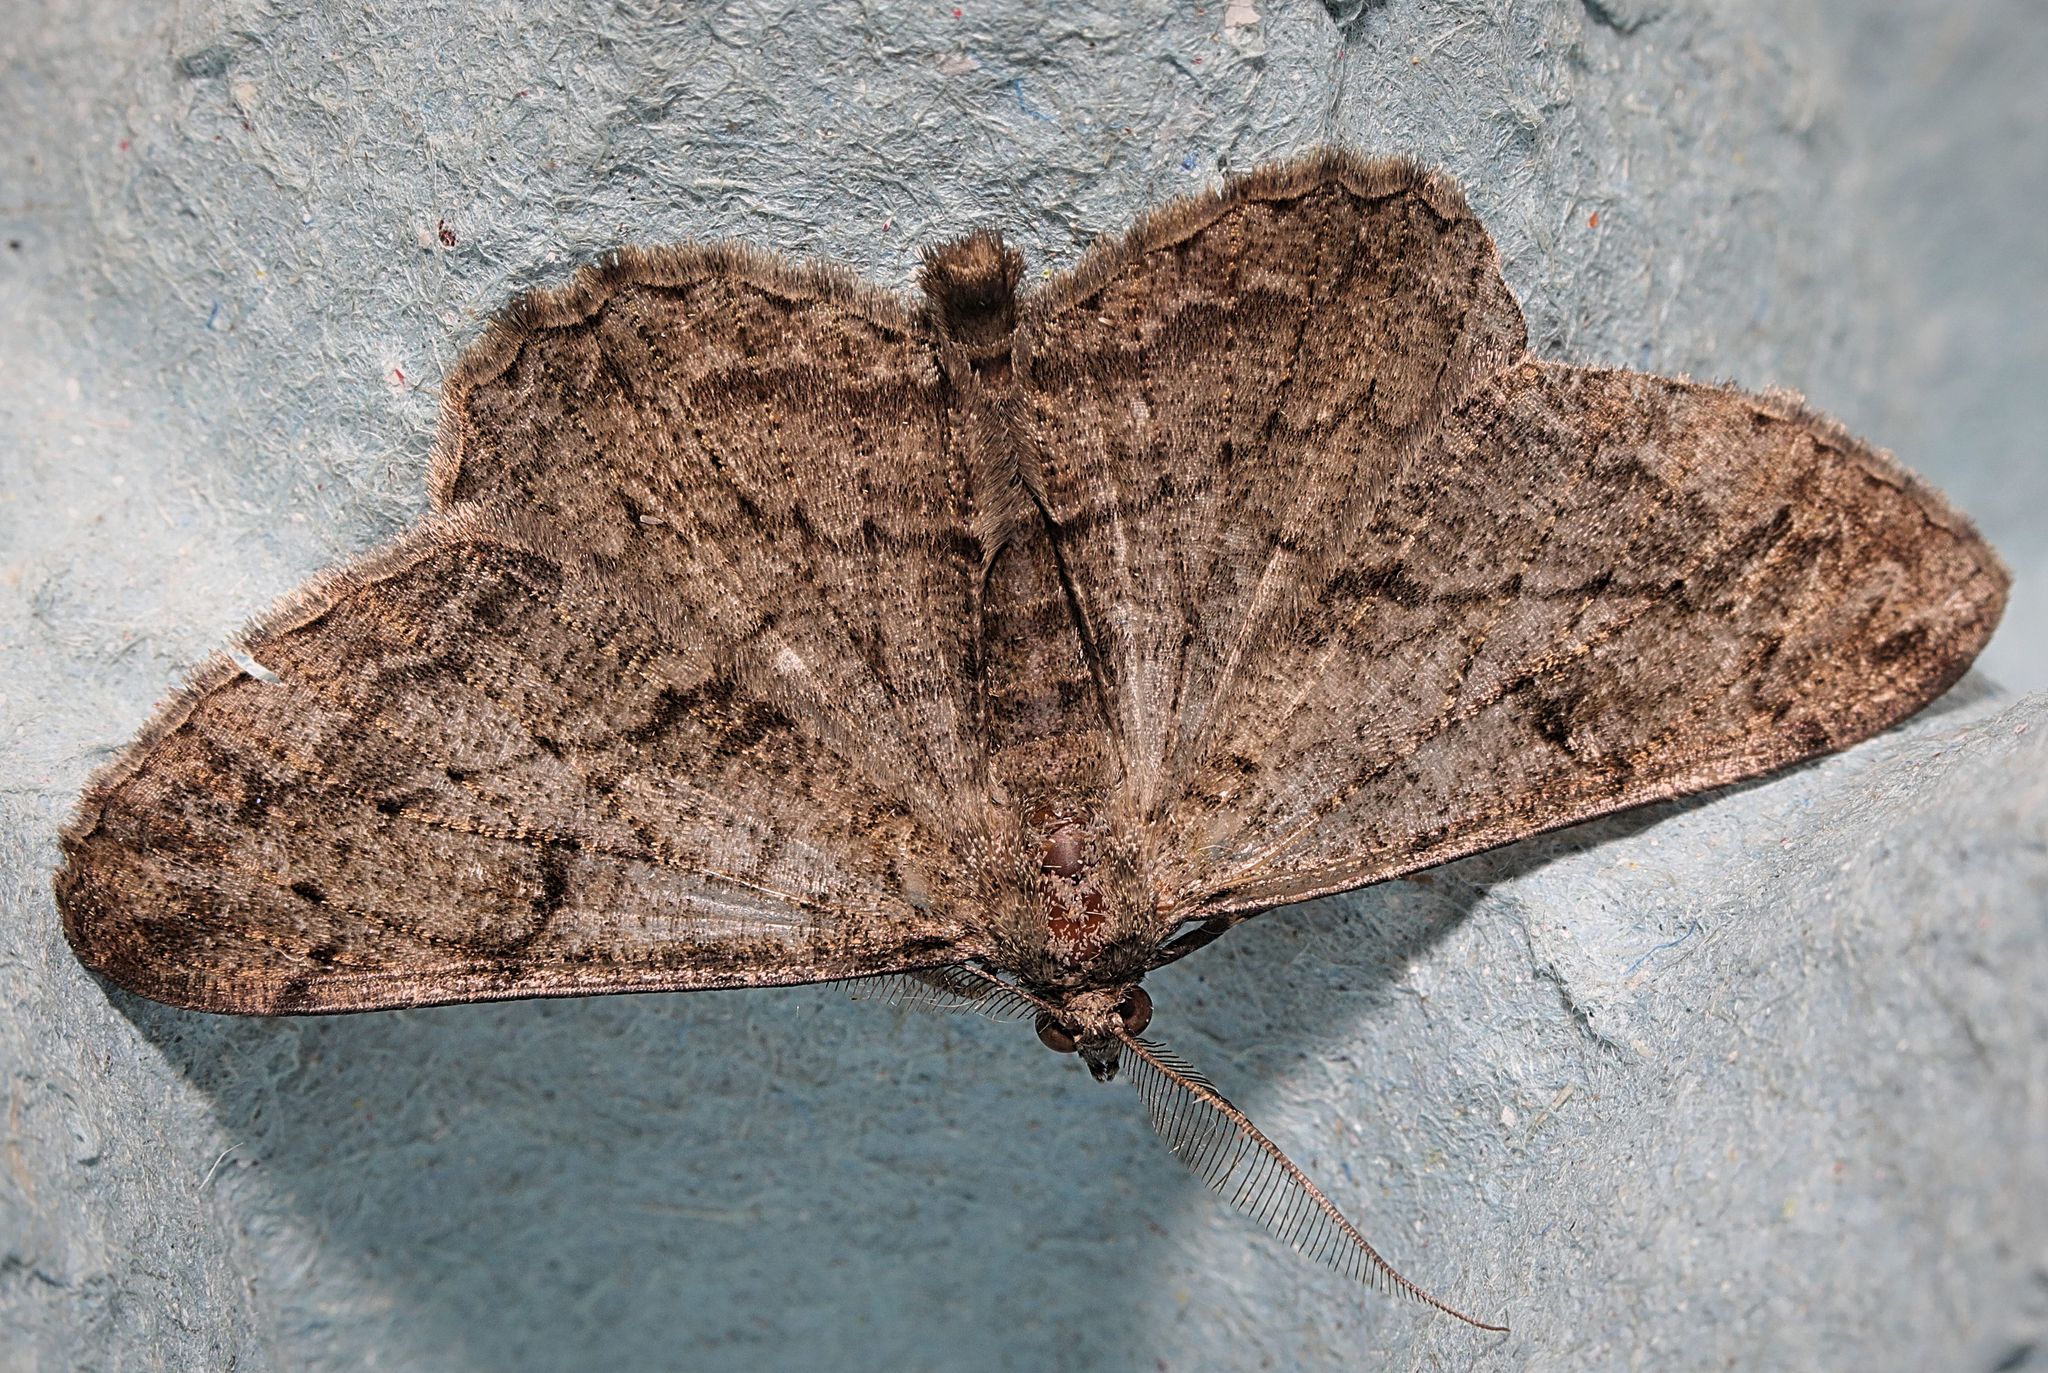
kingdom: Animalia
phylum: Arthropoda
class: Insecta
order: Lepidoptera
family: Geometridae
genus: Peribatodes
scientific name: Peribatodes rhomboidaria
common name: Willow beauty
